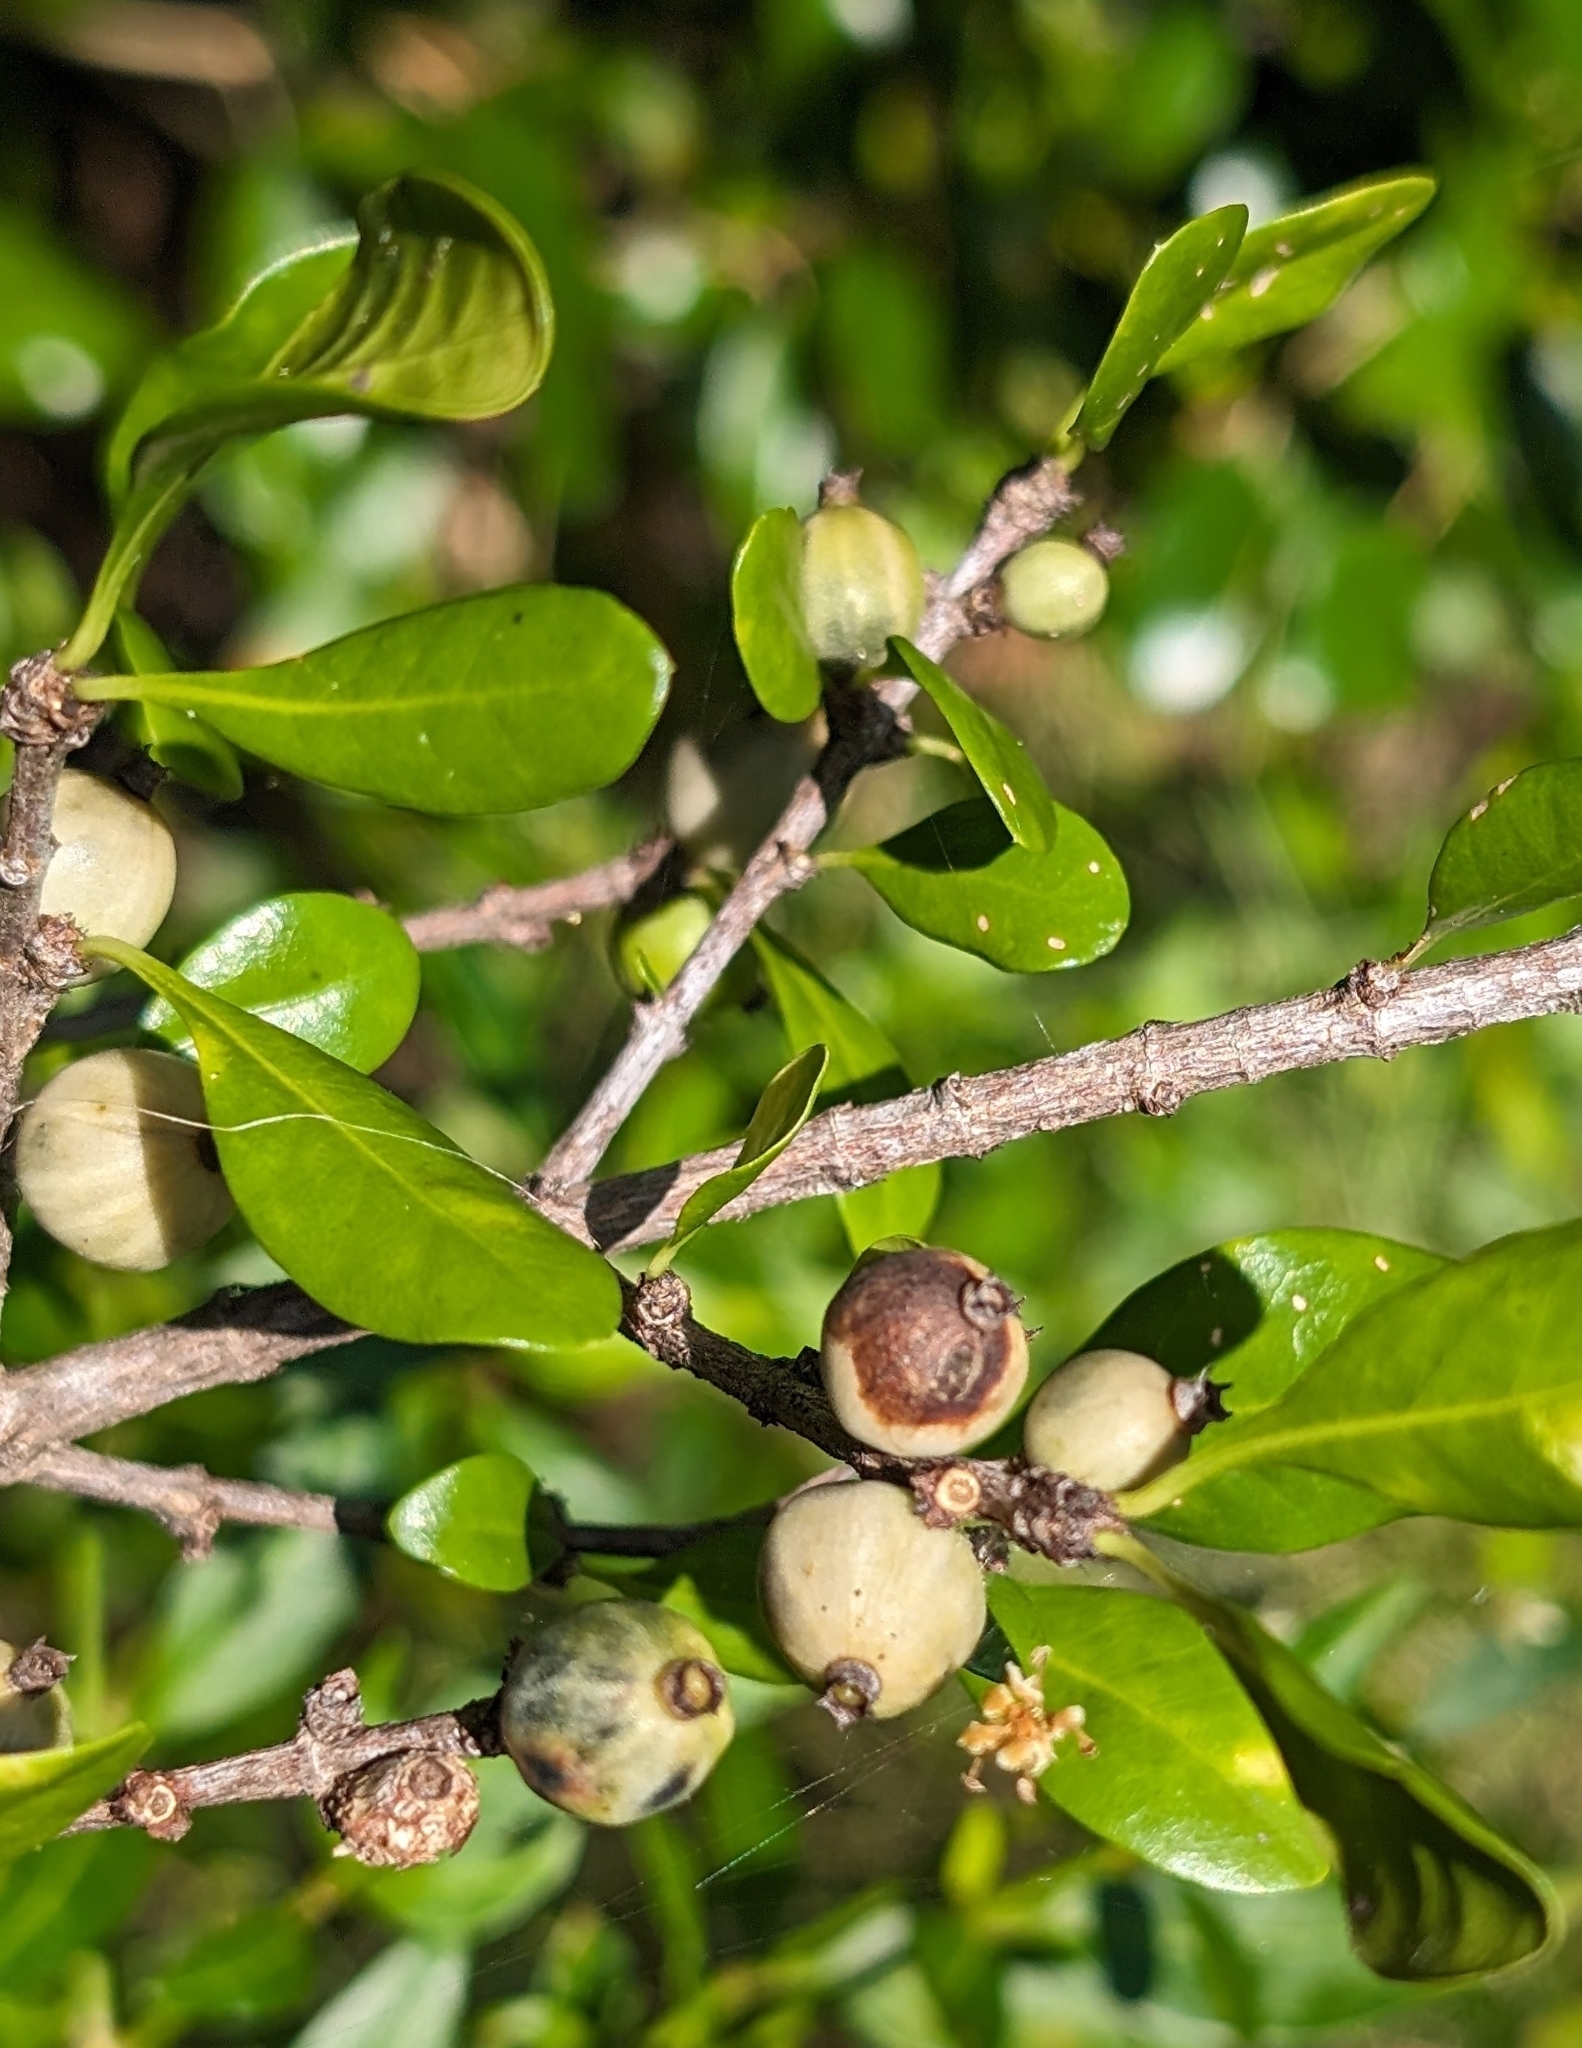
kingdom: Plantae
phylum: Tracheophyta
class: Magnoliopsida
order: Gentianales
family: Rubiaceae
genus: Randia
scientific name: Randia aculeata
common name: Inkberry
